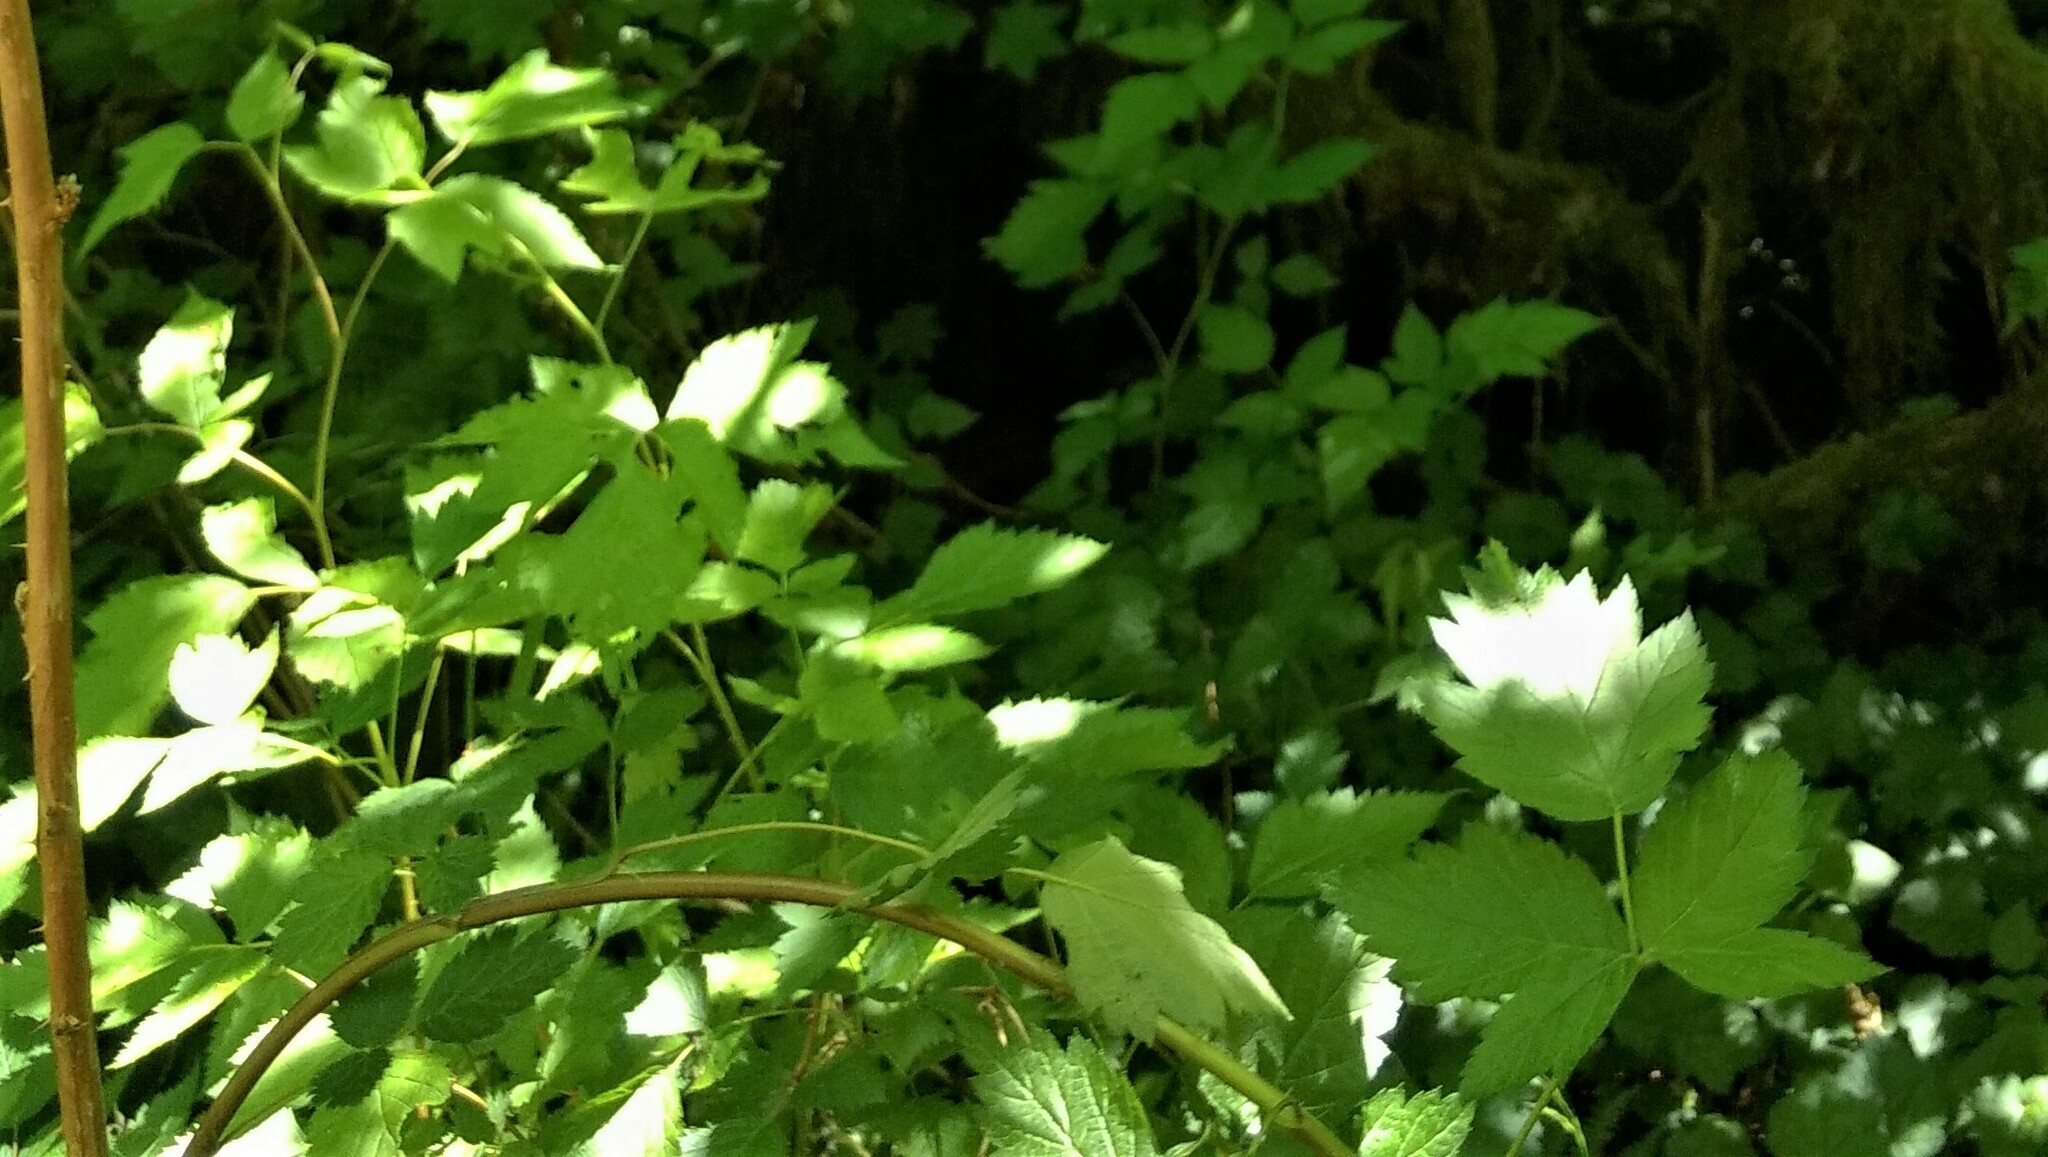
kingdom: Plantae
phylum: Tracheophyta
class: Magnoliopsida
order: Rosales
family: Rosaceae
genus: Rubus
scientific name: Rubus spectabilis
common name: Salmonberry
